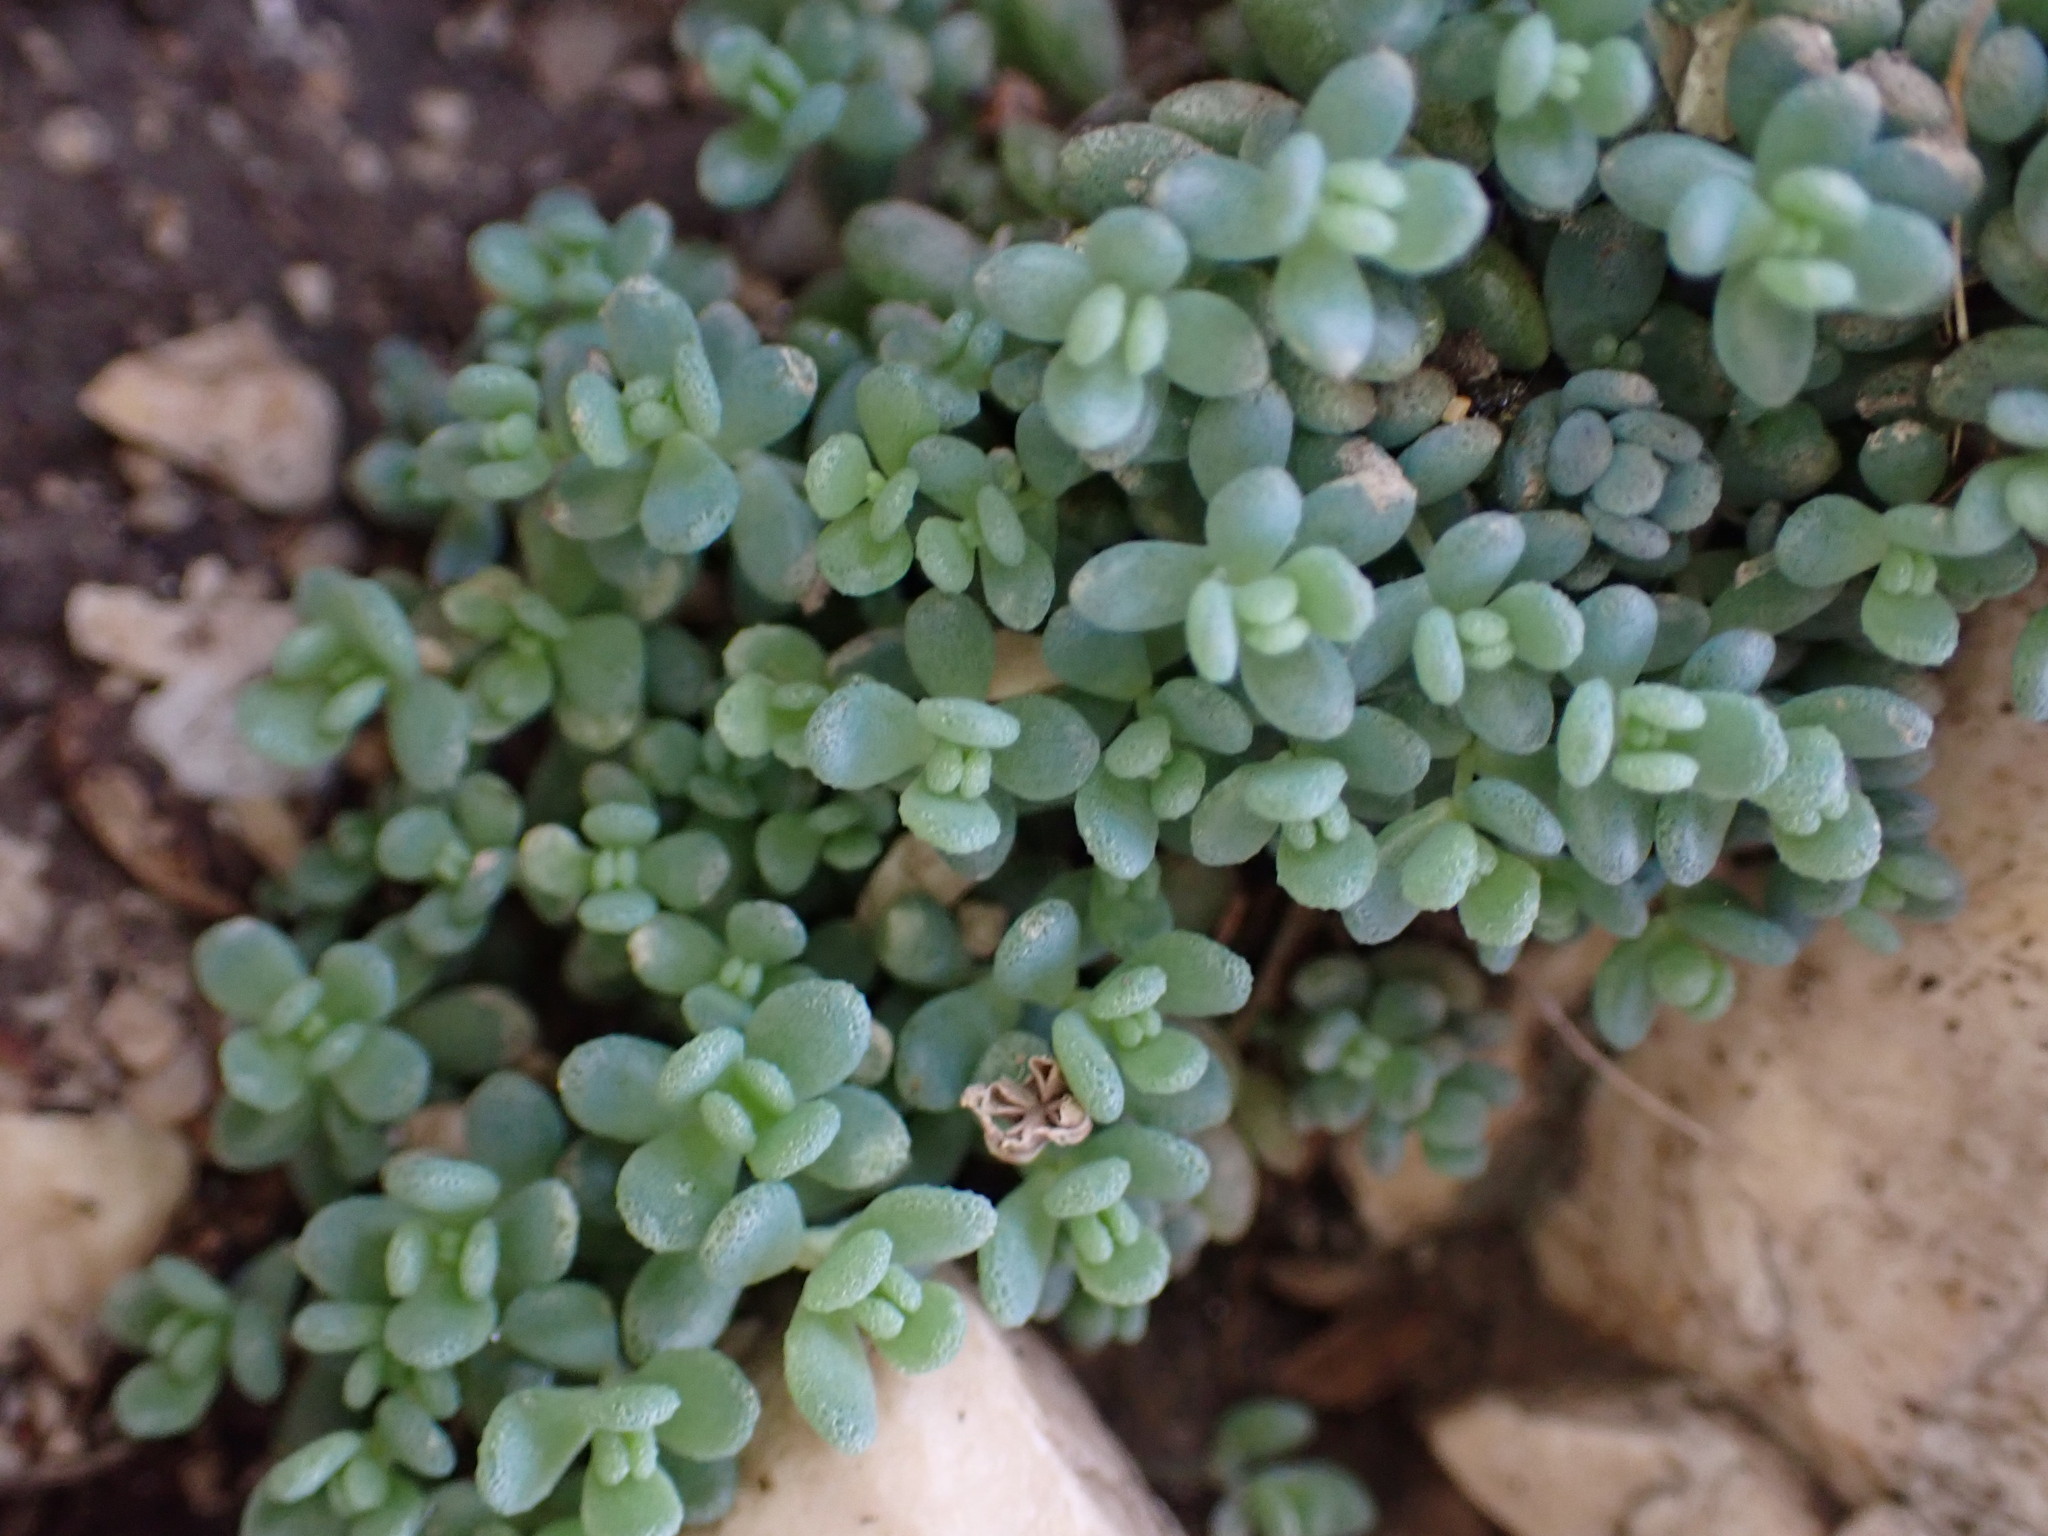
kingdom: Plantae
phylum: Tracheophyta
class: Magnoliopsida
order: Saxifragales
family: Crassulaceae
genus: Sedum
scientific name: Sedum dasyphyllum
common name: Thick-leaf stonecrop
